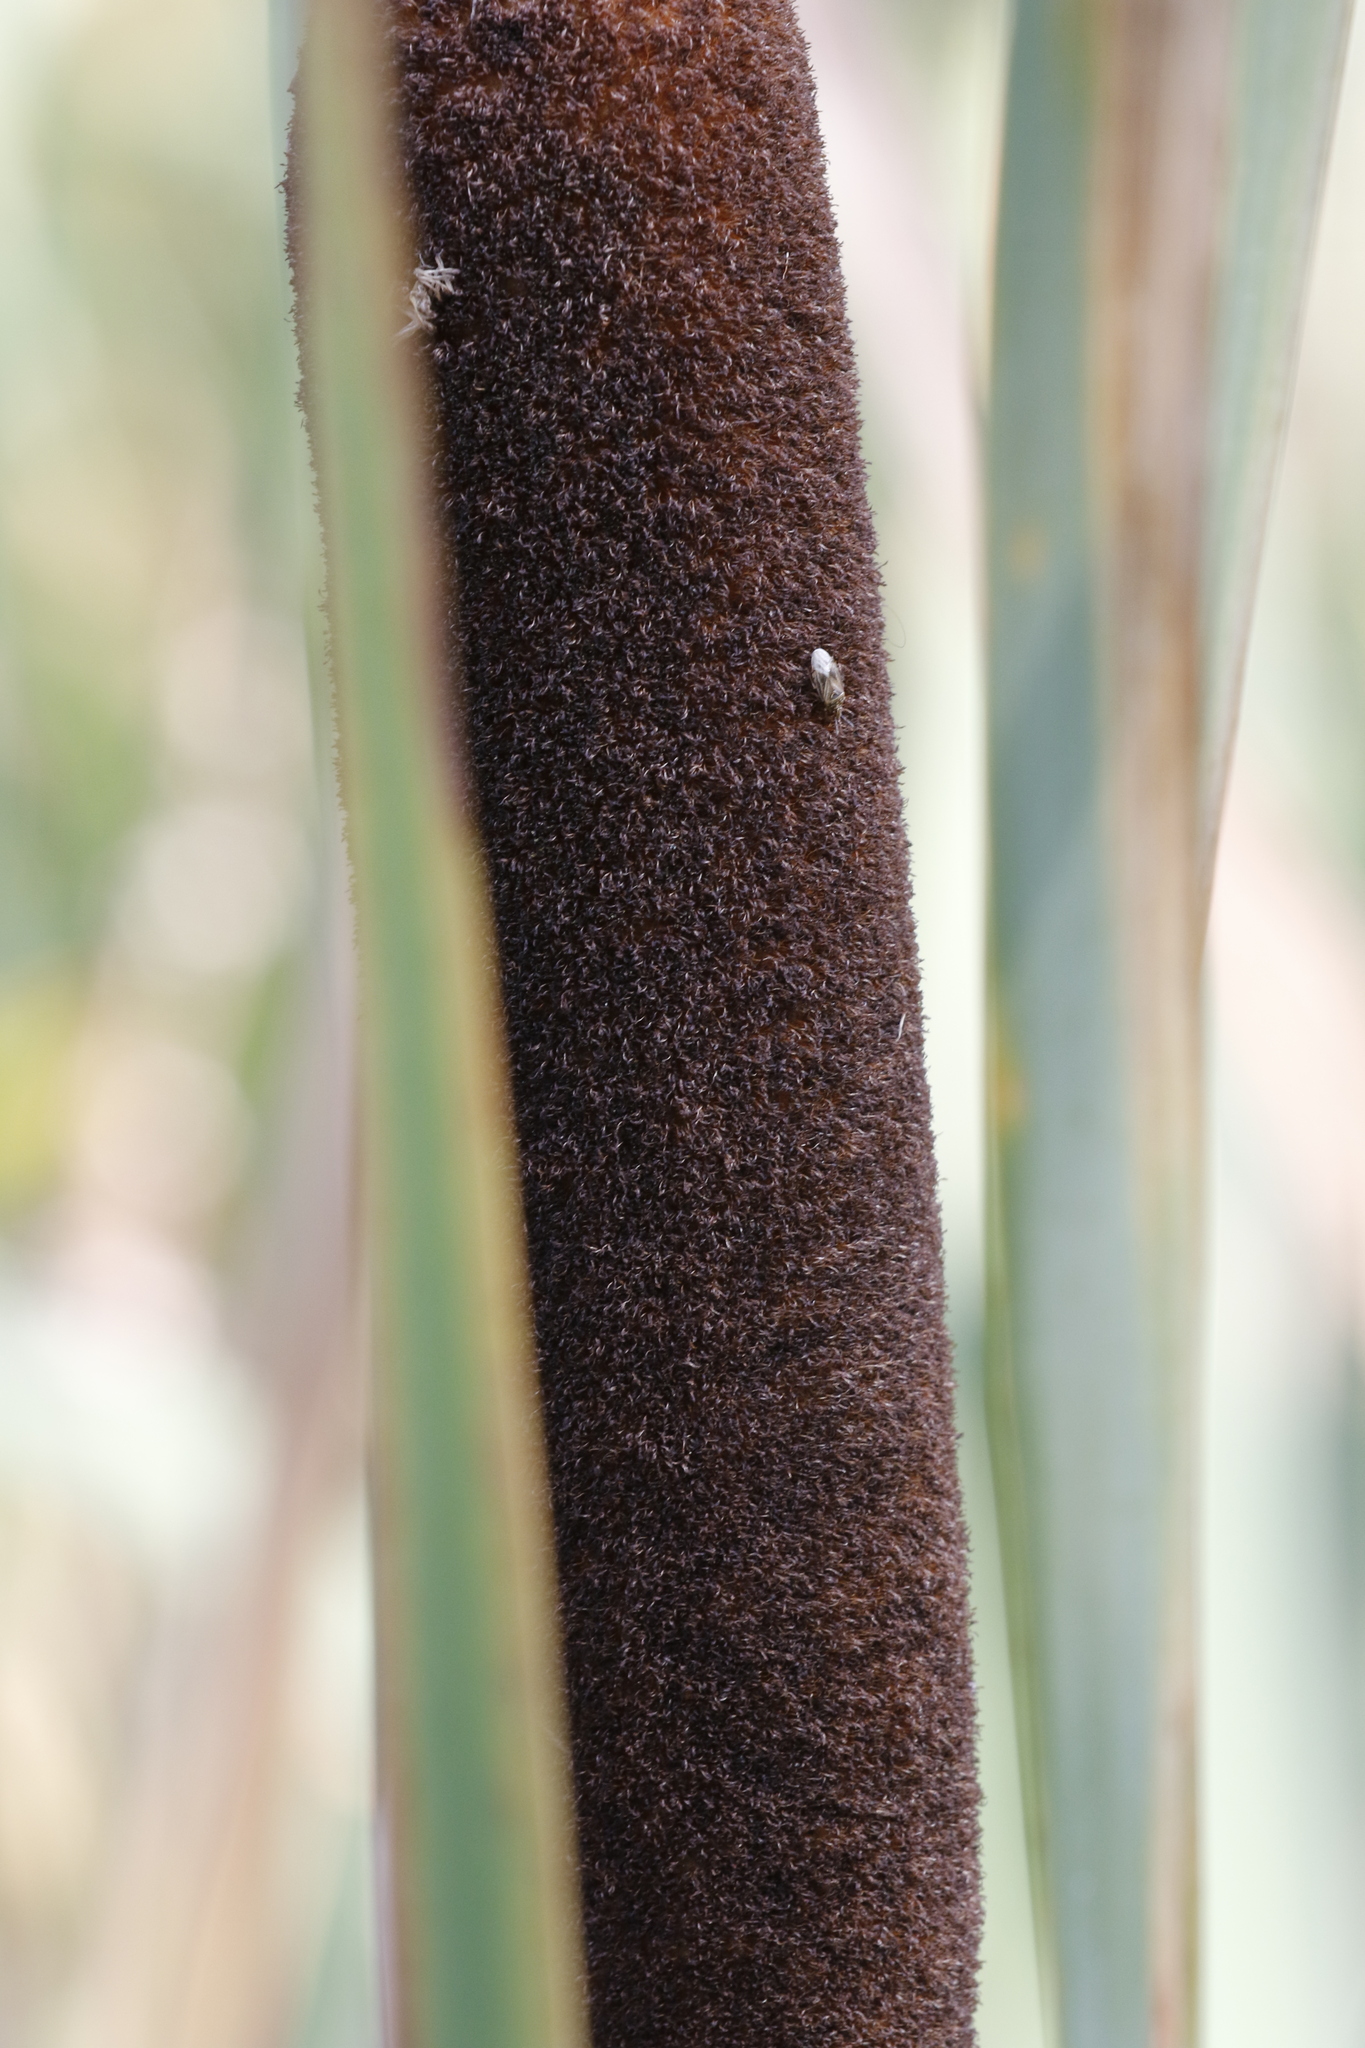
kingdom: Animalia
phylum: Arthropoda
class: Insecta
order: Hemiptera
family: Artheneidae
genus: Chilacis
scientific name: Chilacis typhae
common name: Cattail bug
